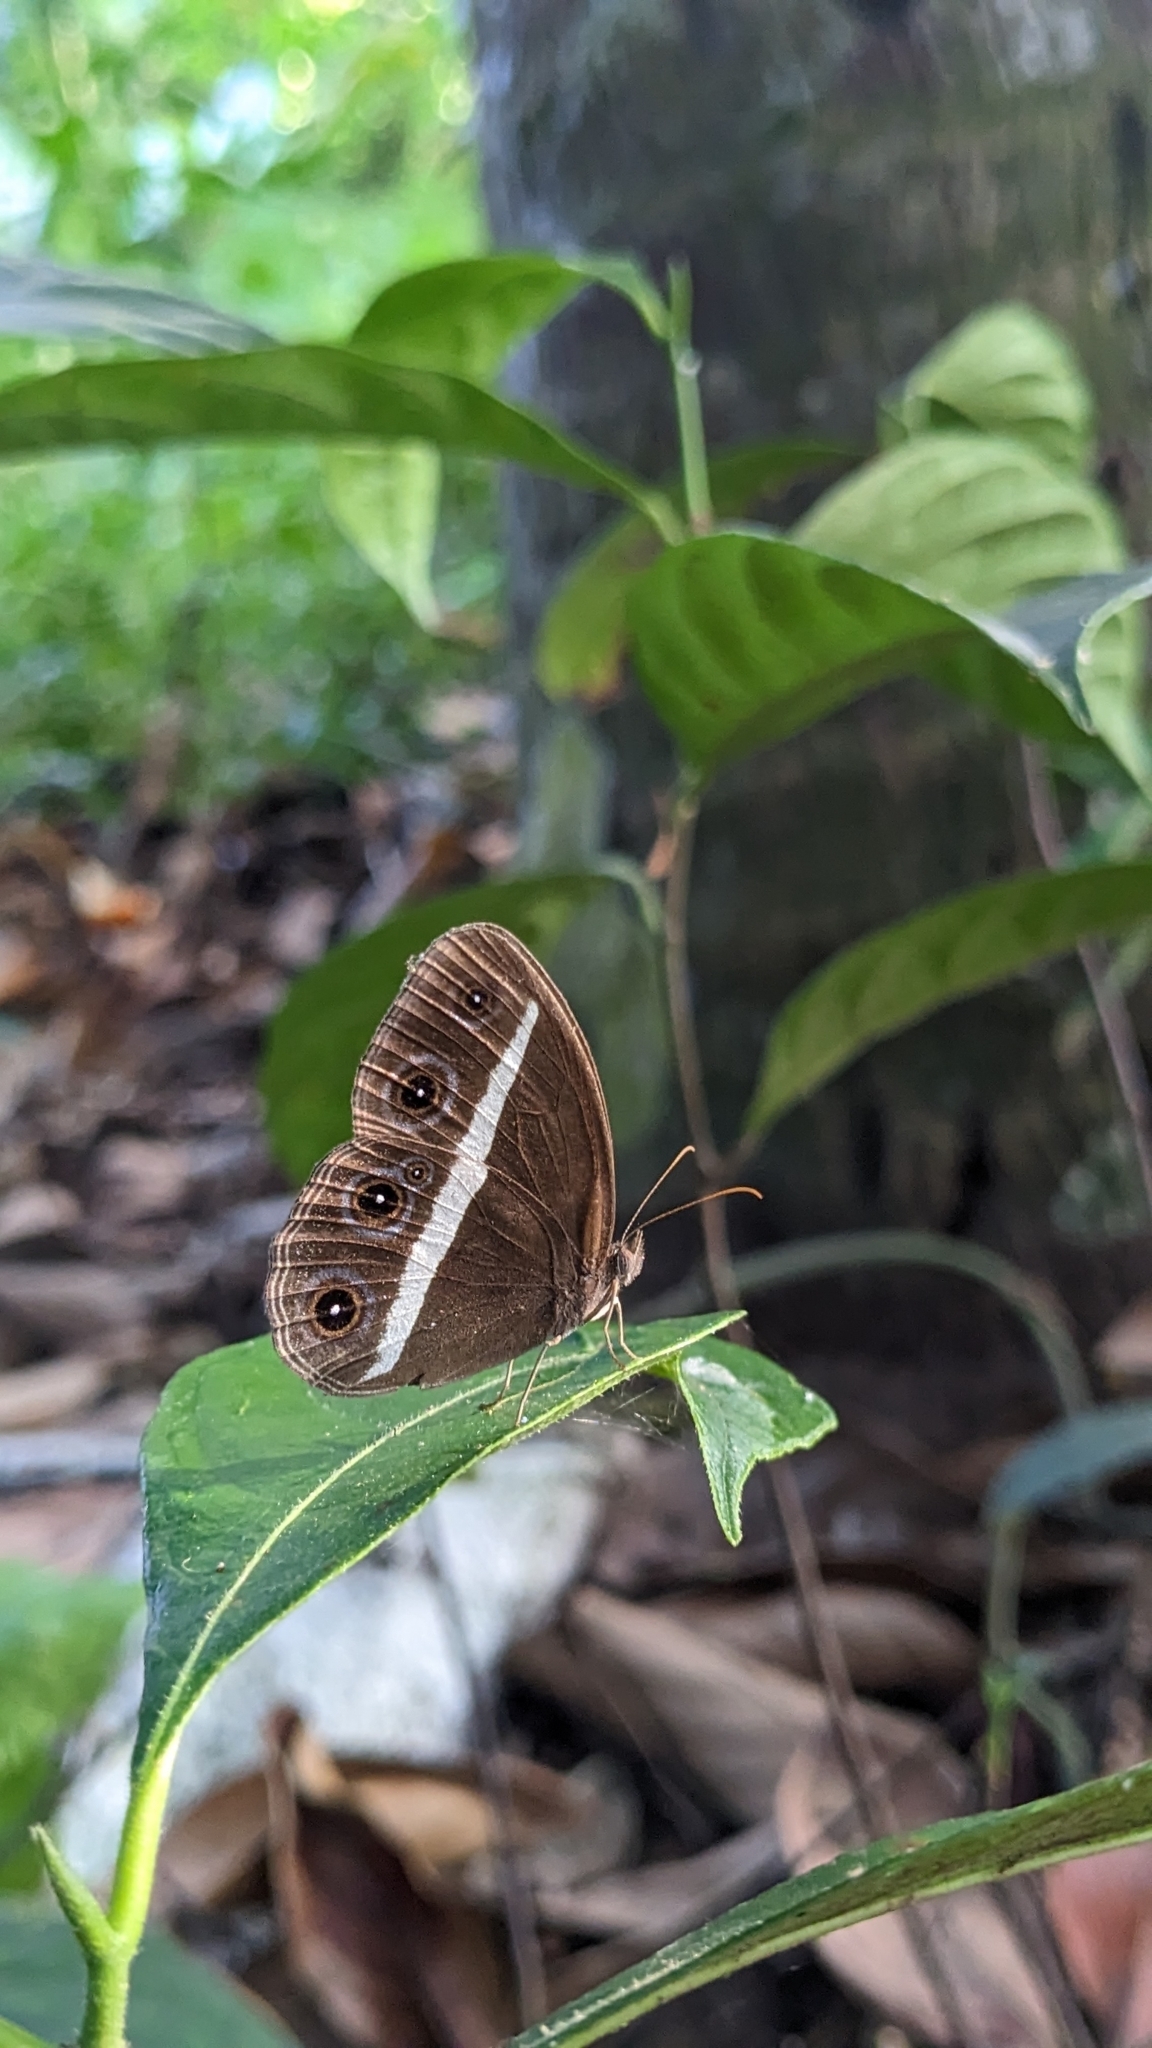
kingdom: Animalia
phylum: Arthropoda
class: Insecta
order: Lepidoptera
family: Nymphalidae
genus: Orsotriaena
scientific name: Orsotriaena medus
